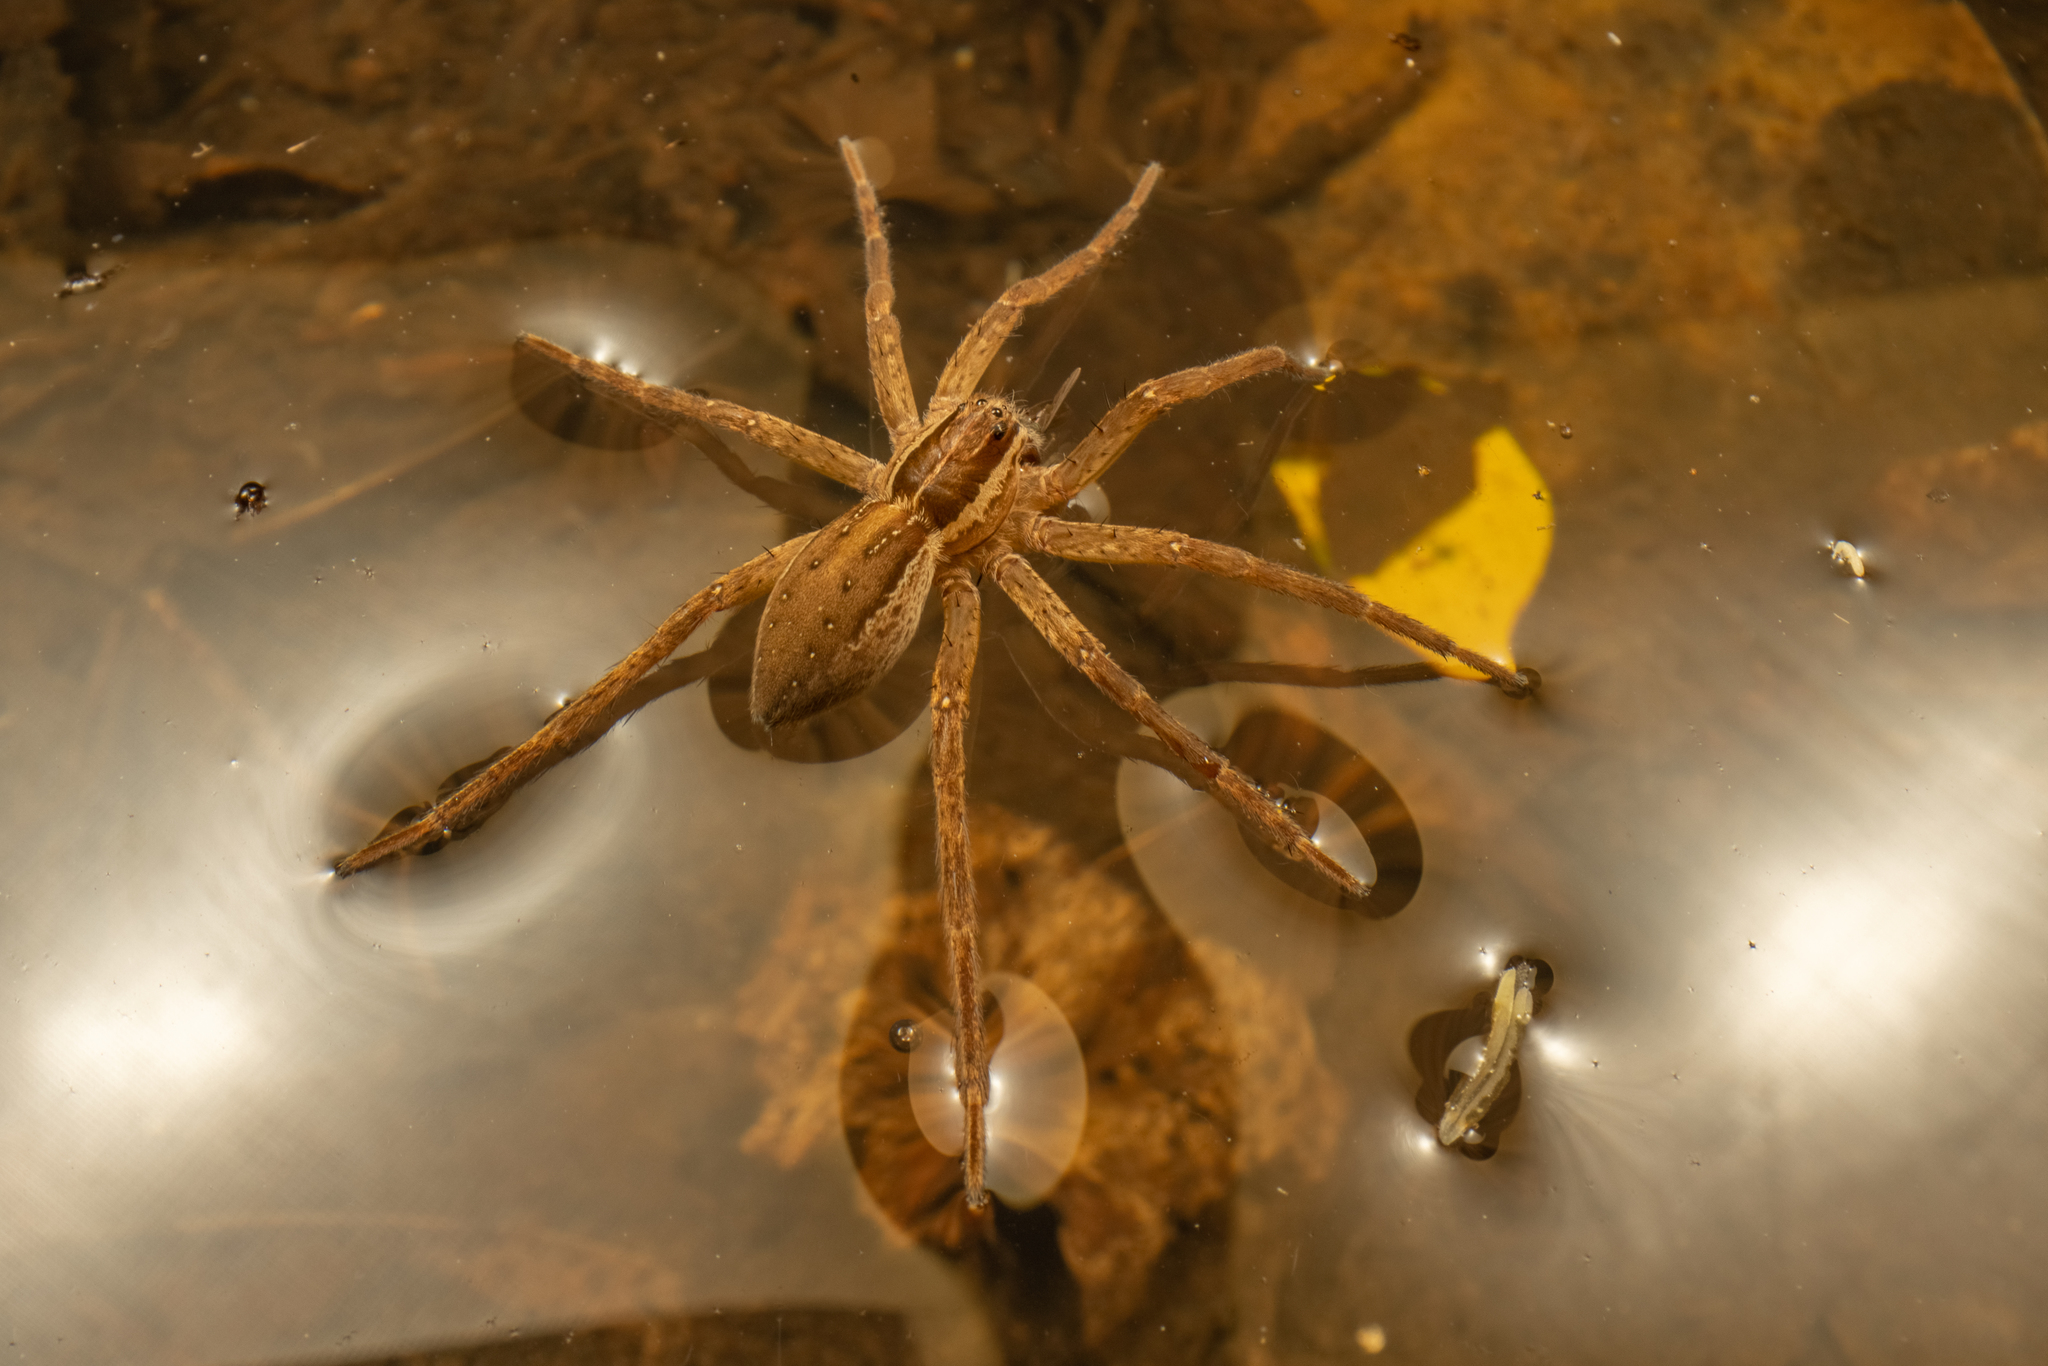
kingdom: Animalia
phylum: Arthropoda
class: Arachnida
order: Araneae
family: Pisauridae
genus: Dolomedes
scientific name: Dolomedes minor
